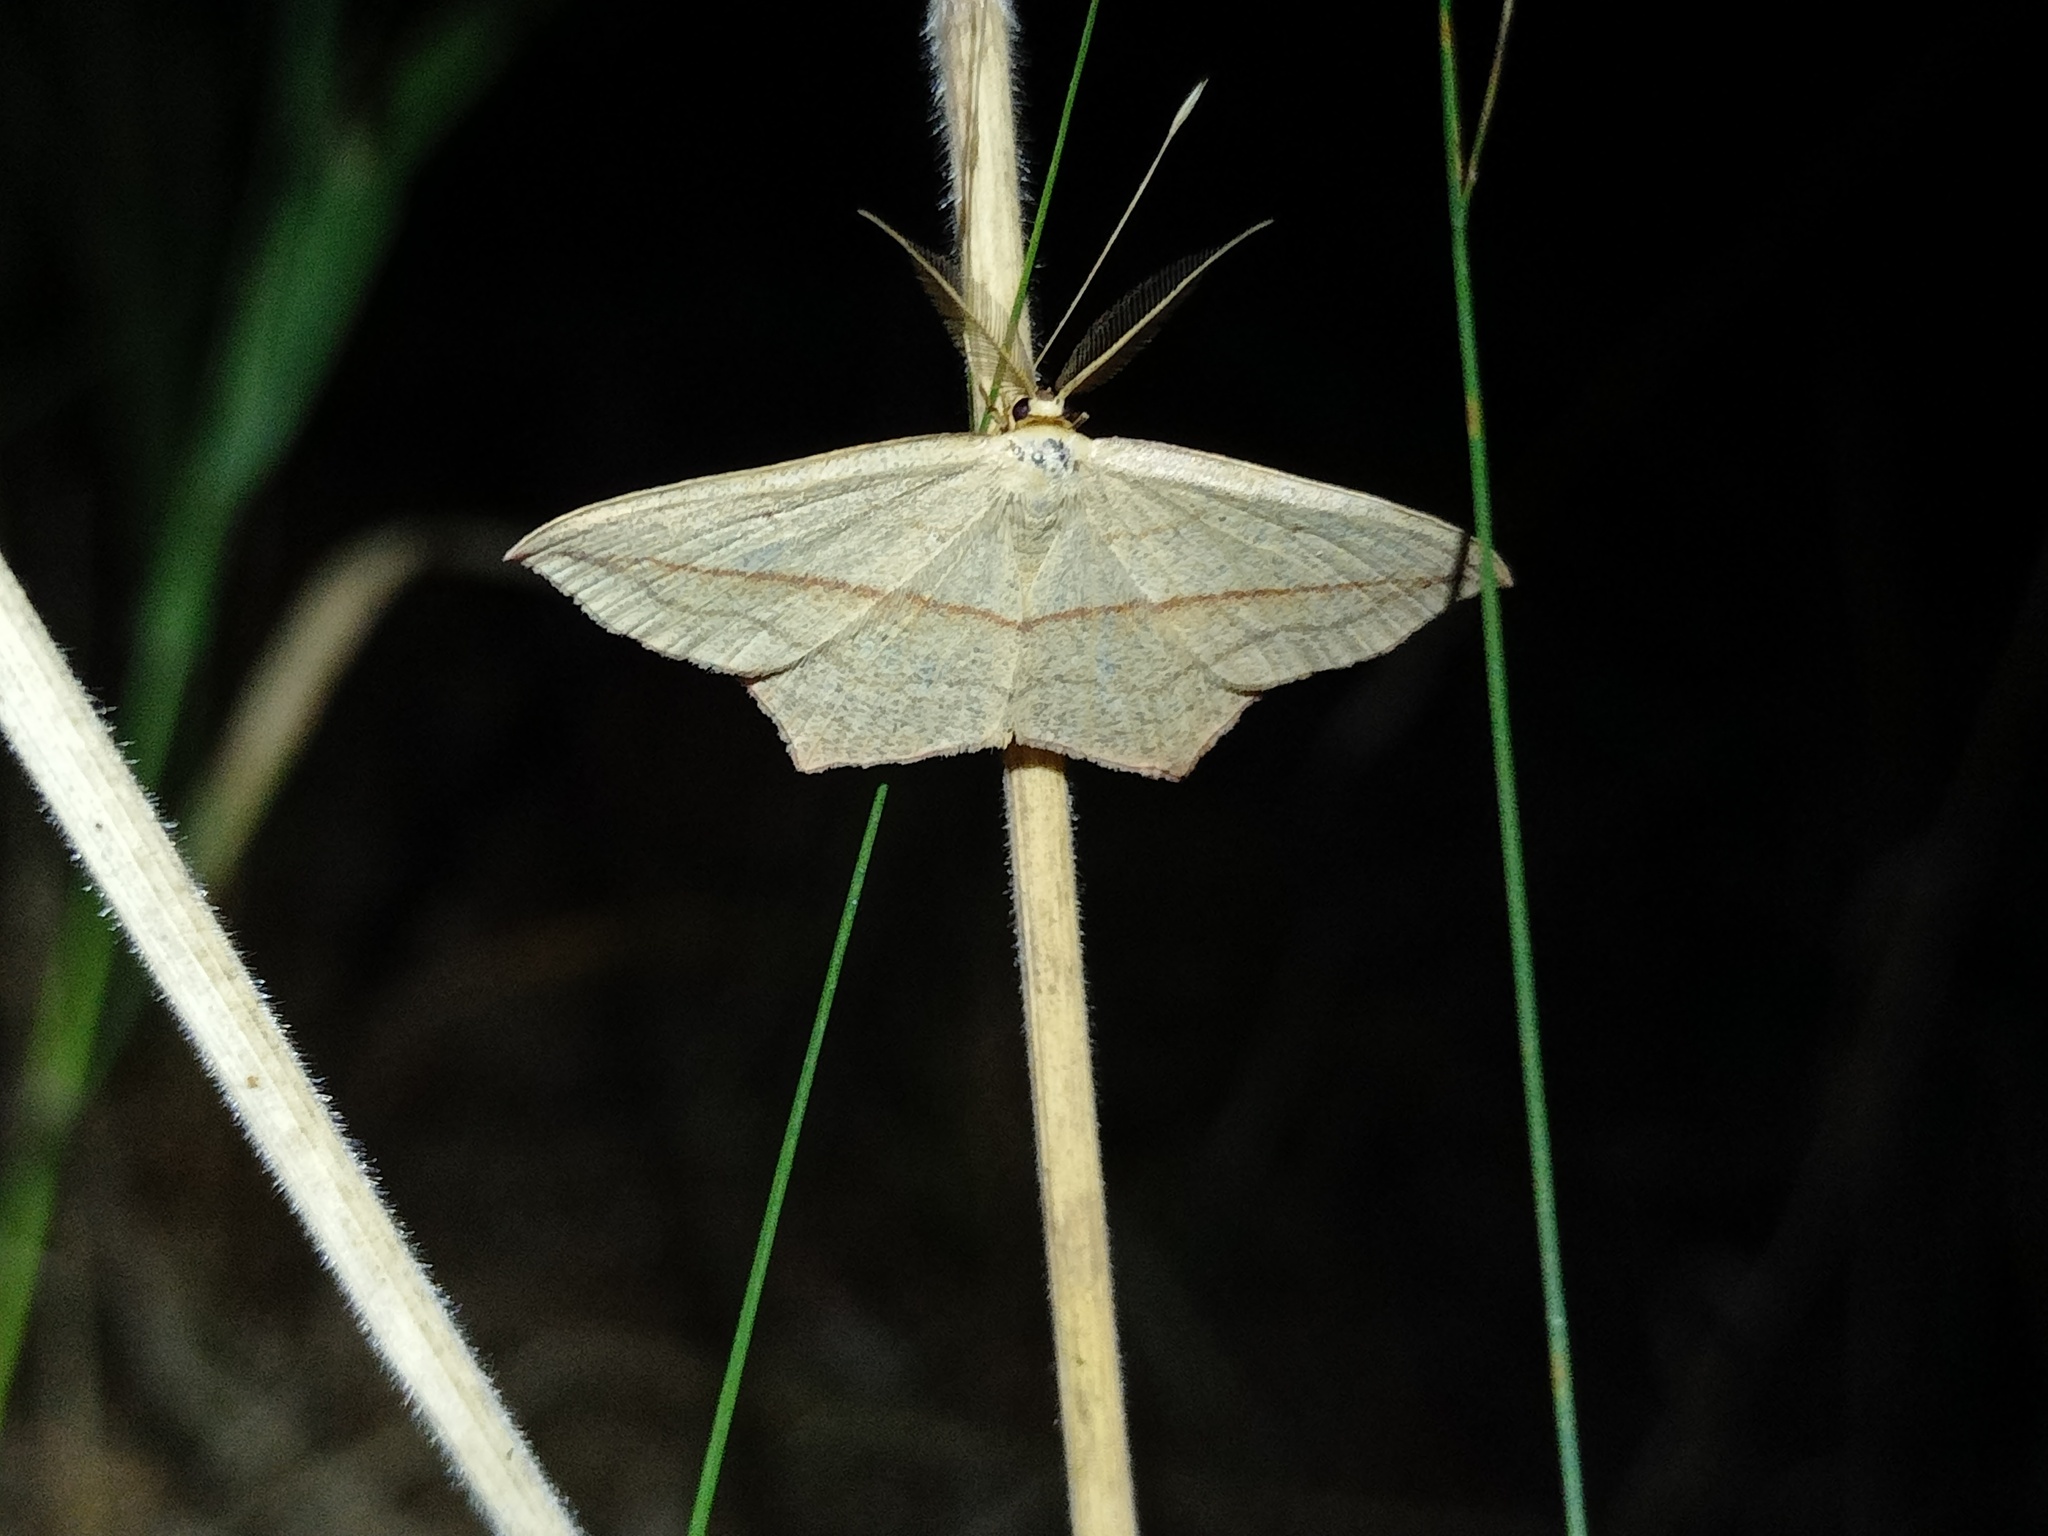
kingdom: Animalia
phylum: Arthropoda
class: Insecta
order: Lepidoptera
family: Geometridae
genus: Timandra
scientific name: Timandra comae
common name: Blood-vein
